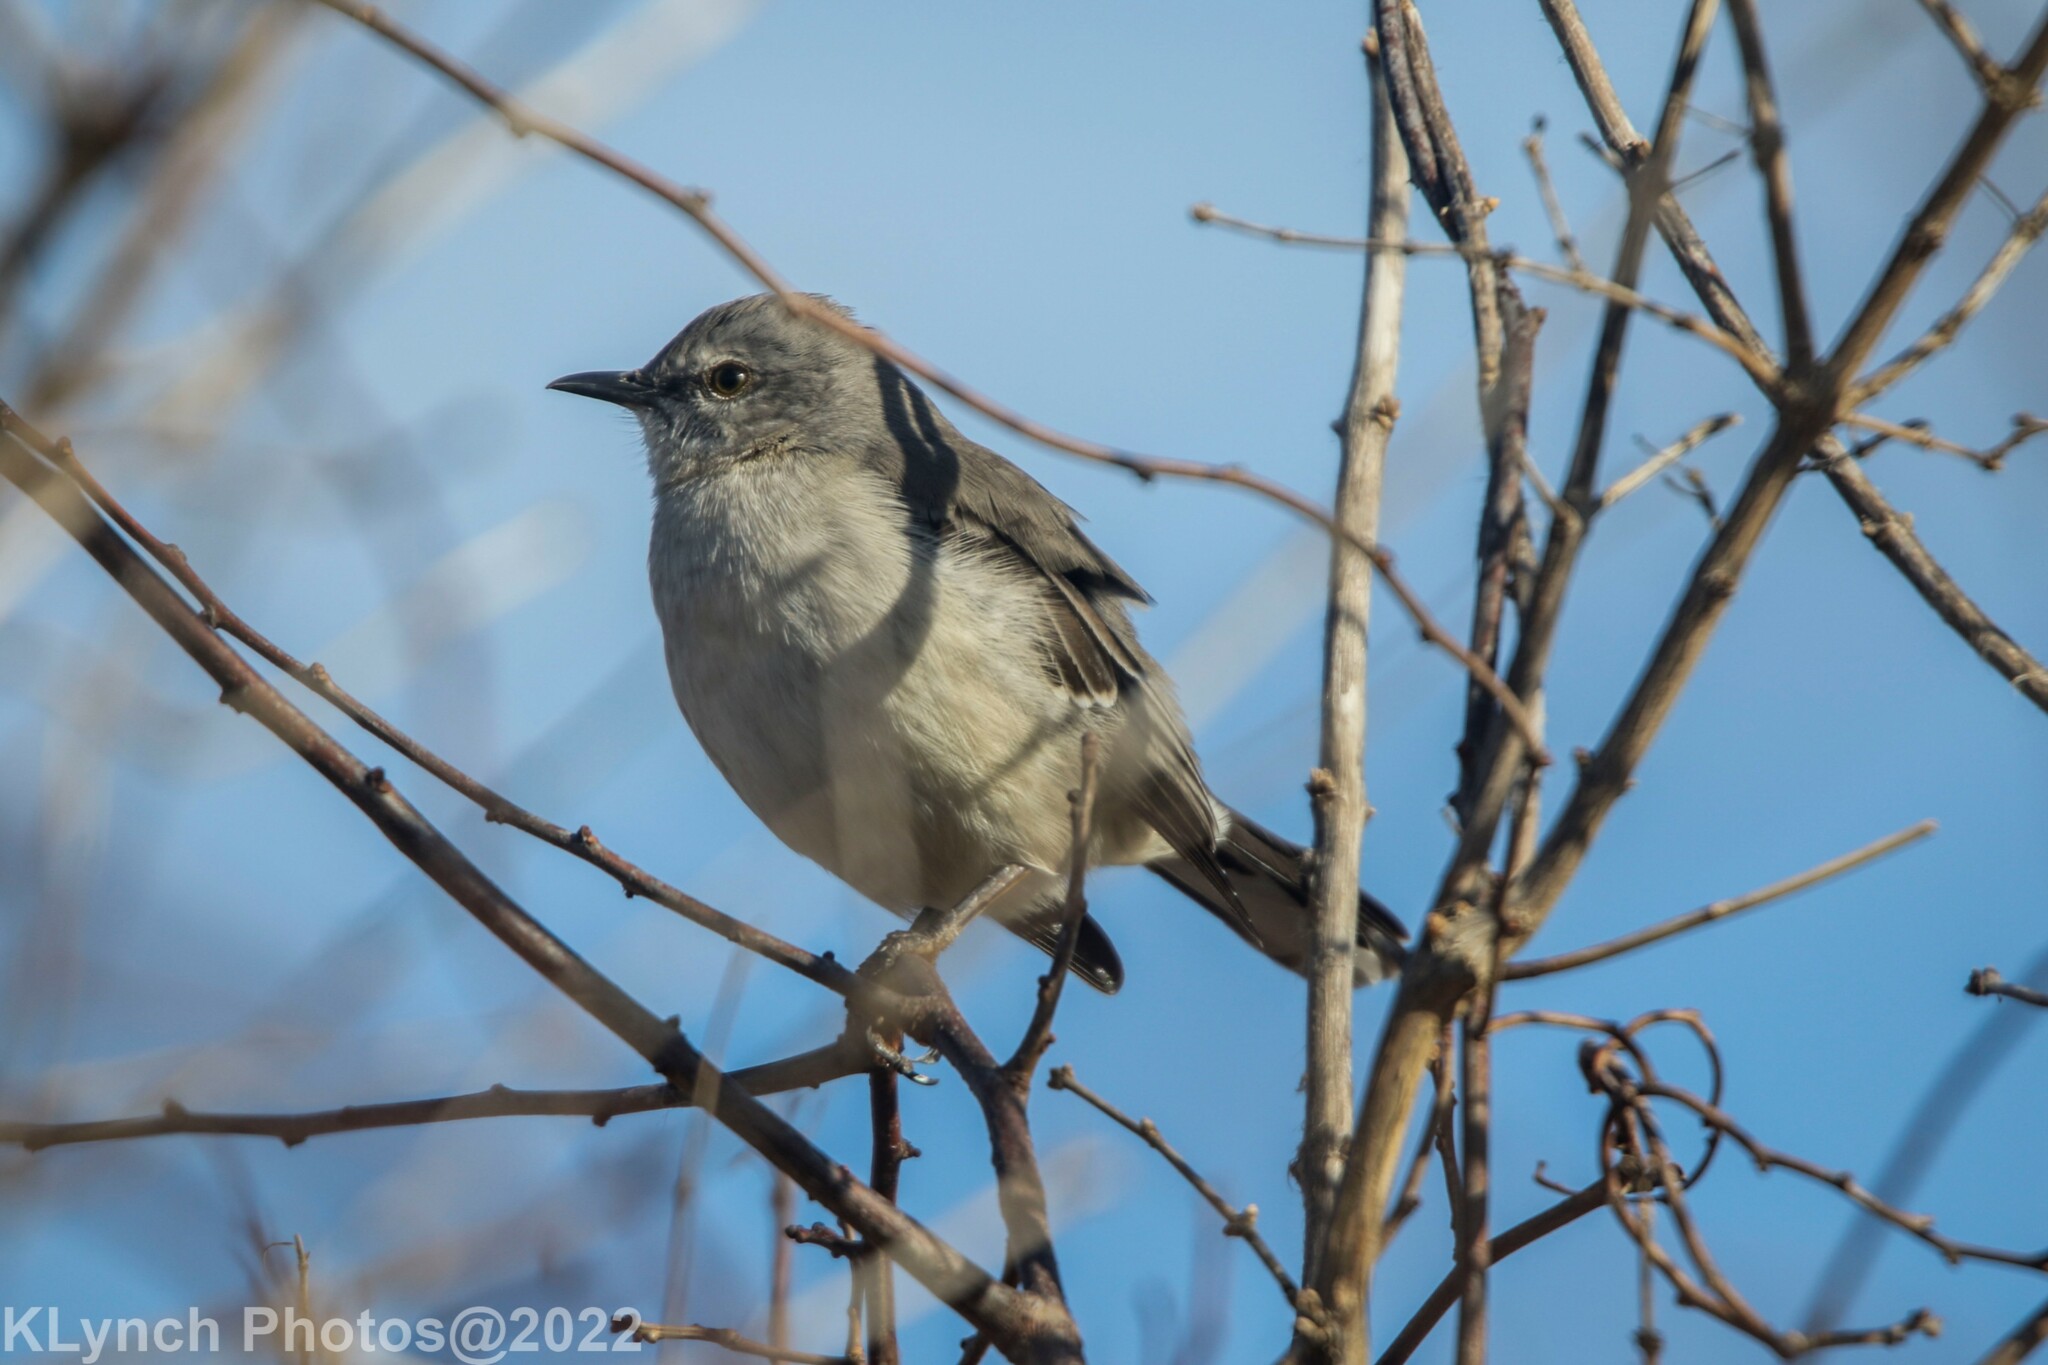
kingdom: Animalia
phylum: Chordata
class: Aves
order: Passeriformes
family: Mimidae
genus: Mimus
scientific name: Mimus polyglottos
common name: Northern mockingbird
